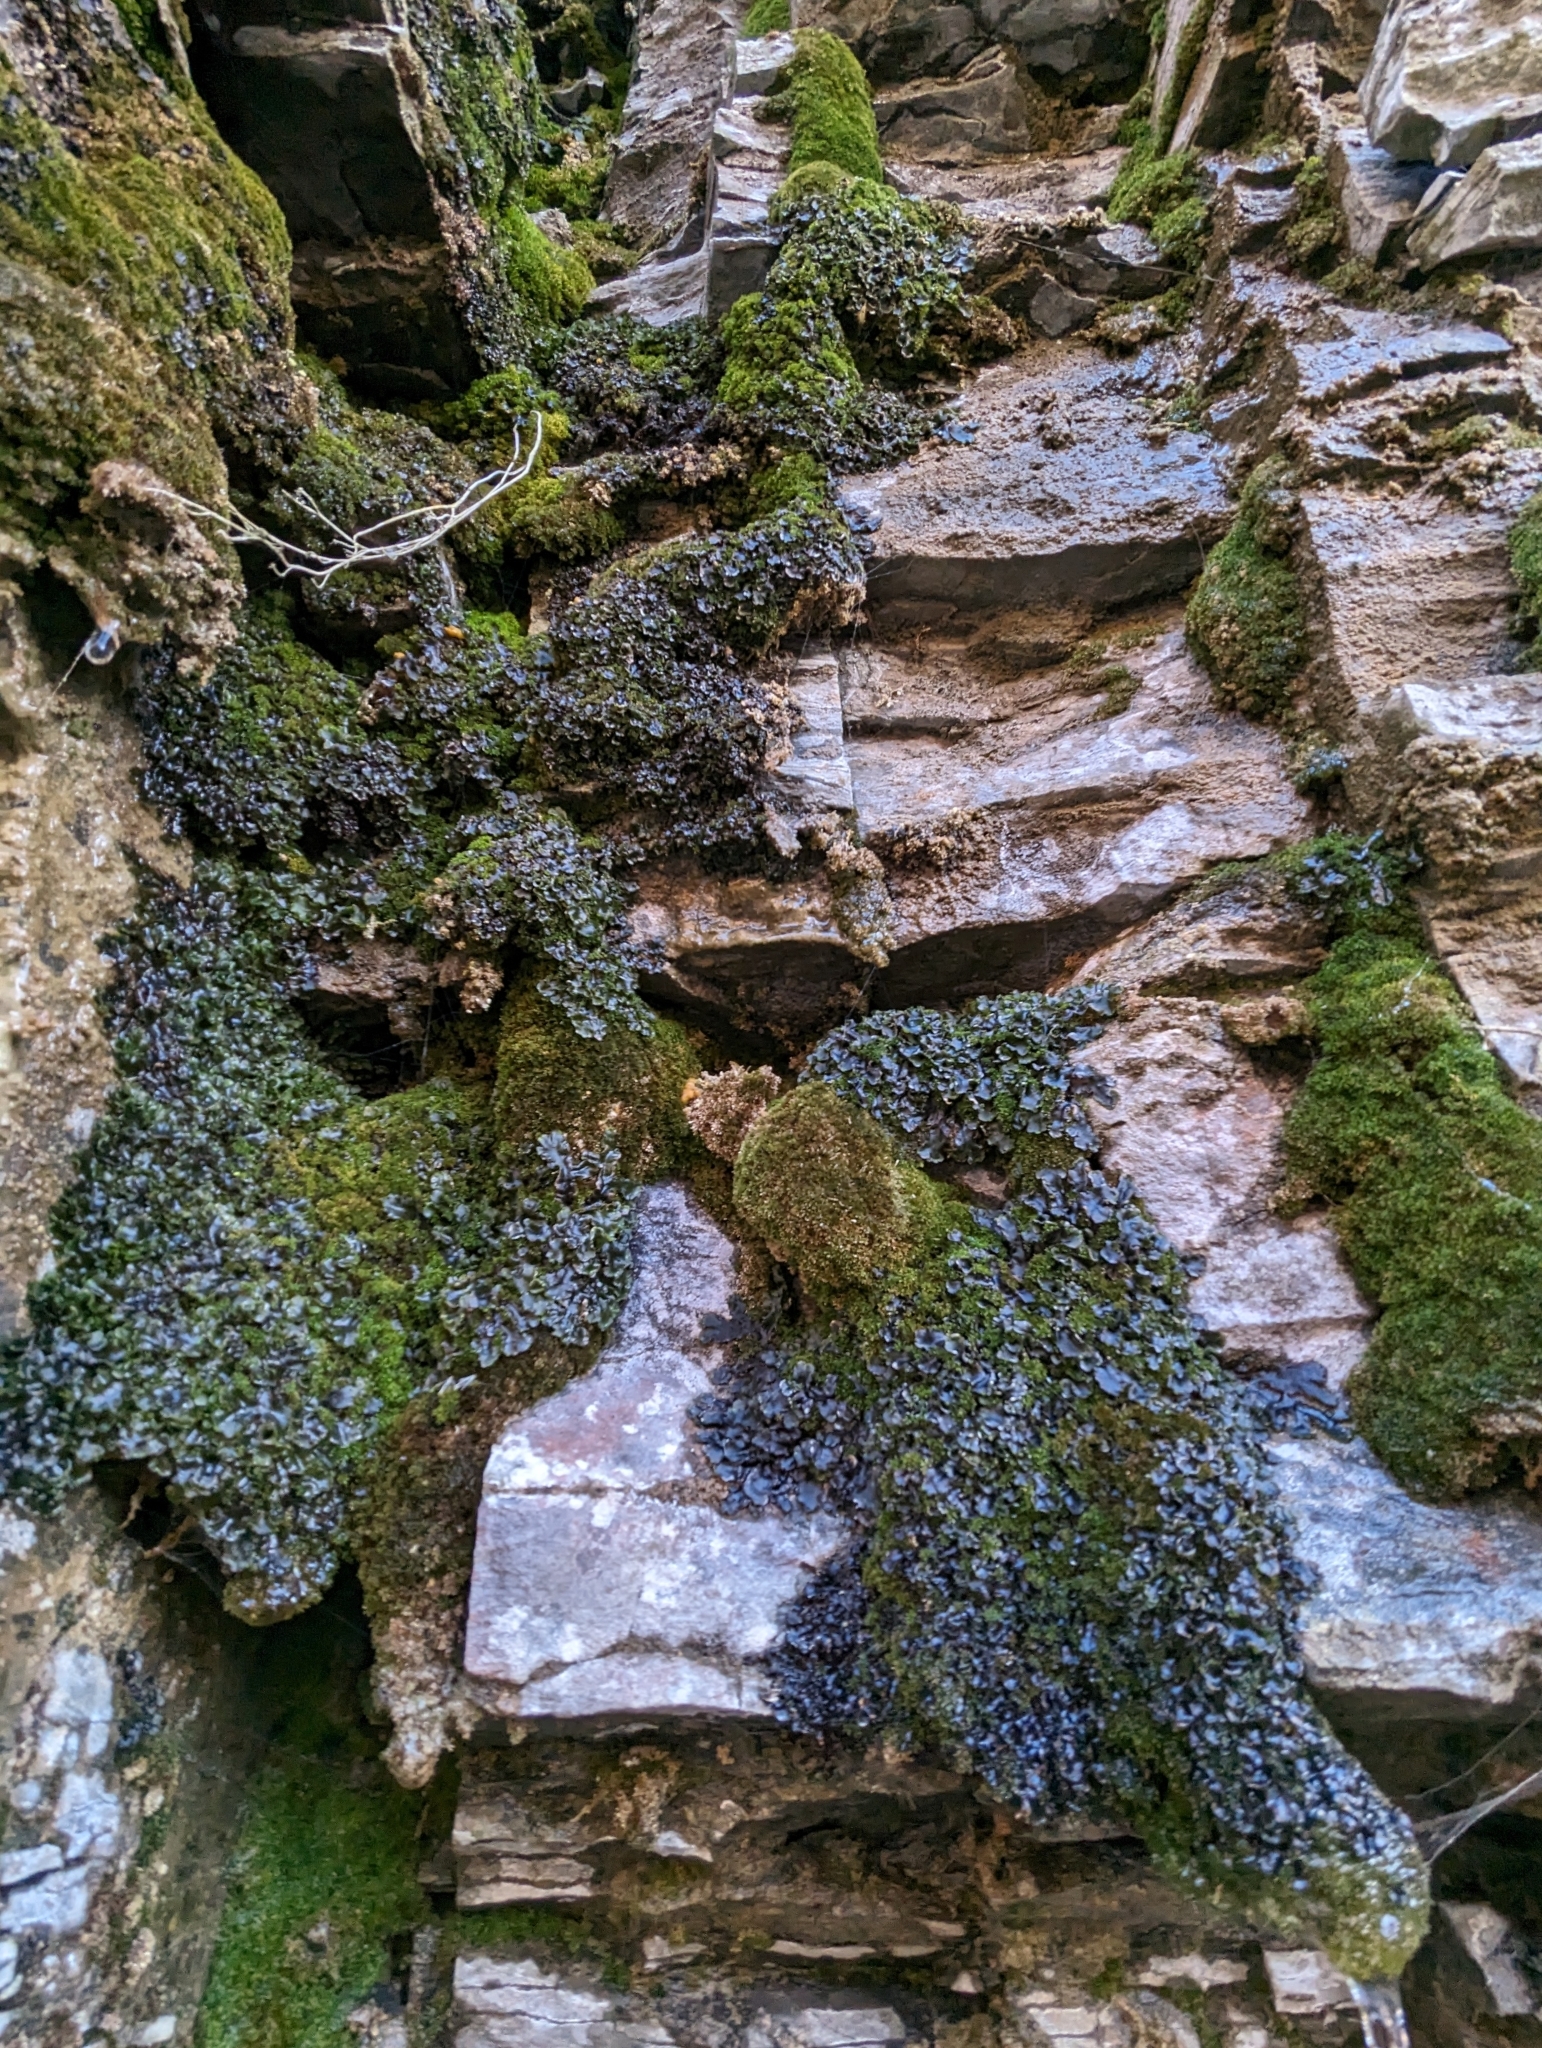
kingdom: Fungi
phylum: Ascomycota
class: Lecanoromycetes
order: Peltigerales
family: Collemataceae
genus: Leptogium
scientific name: Leptogium cyanescens
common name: Blue jellyskin
